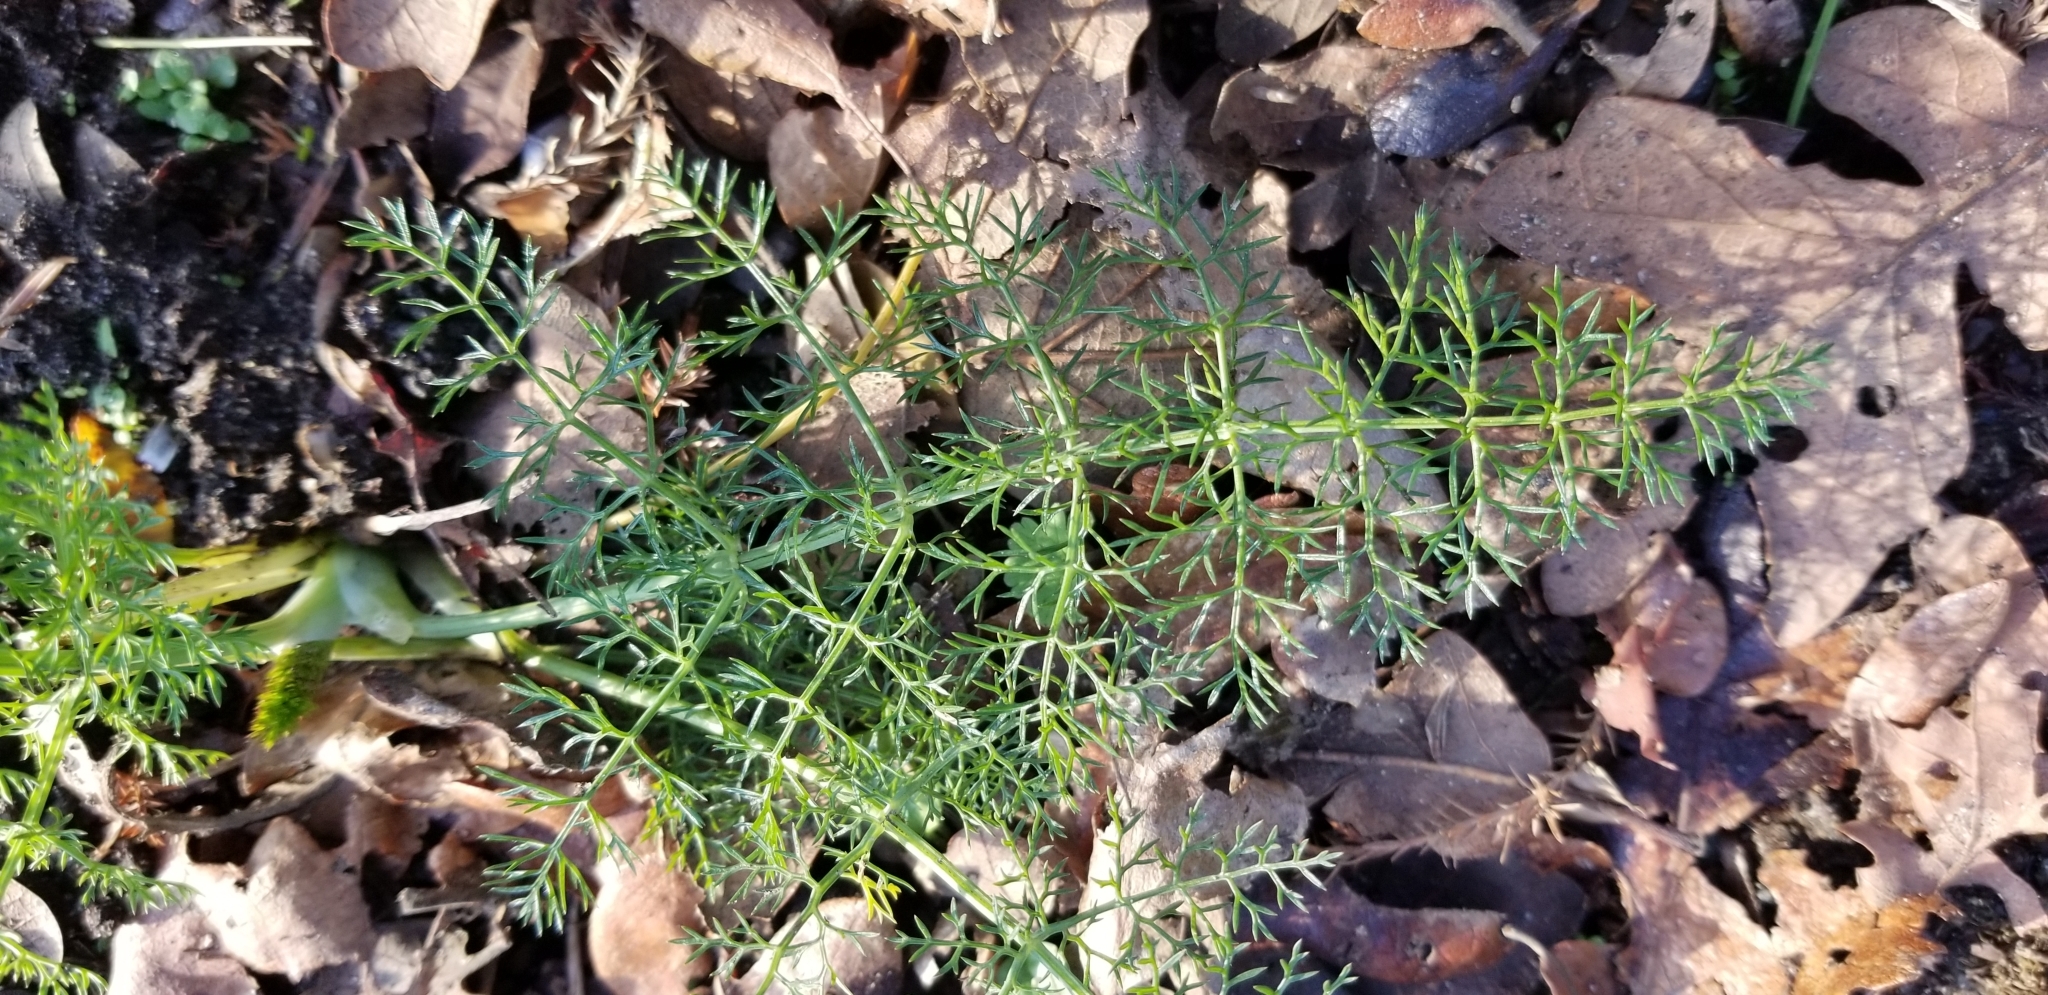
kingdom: Plantae
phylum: Tracheophyta
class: Magnoliopsida
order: Apiales
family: Apiaceae
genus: Foeniculum
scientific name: Foeniculum vulgare
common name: Fennel
